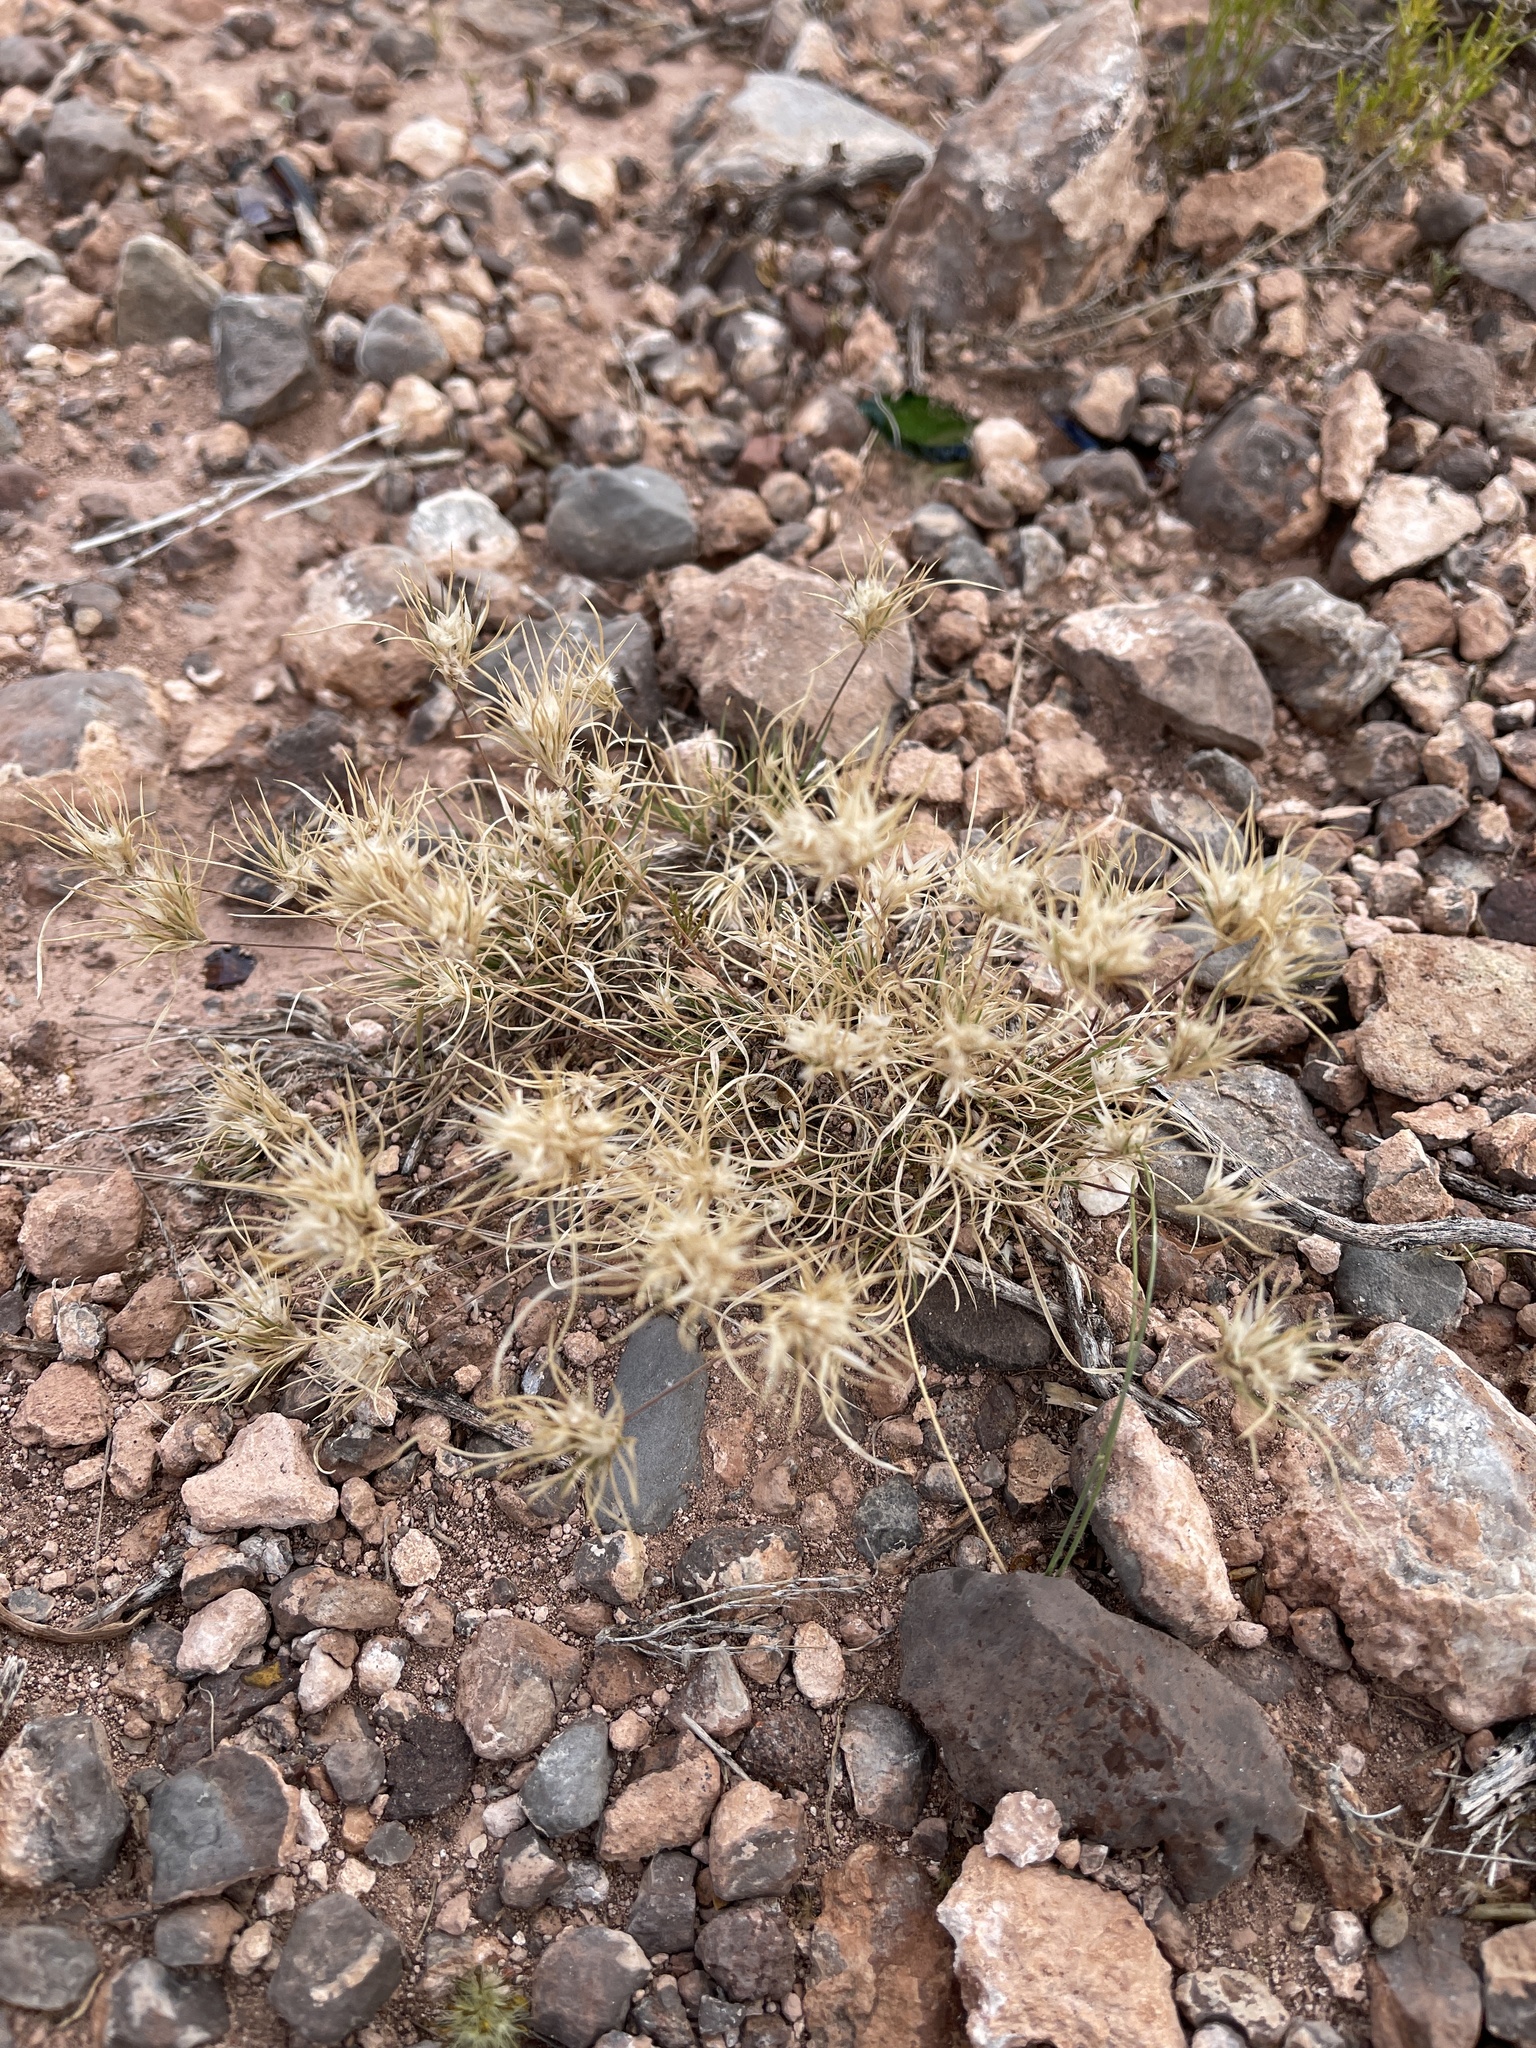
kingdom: Plantae
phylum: Tracheophyta
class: Liliopsida
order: Poales
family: Poaceae
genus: Dasyochloa
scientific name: Dasyochloa pulchella
